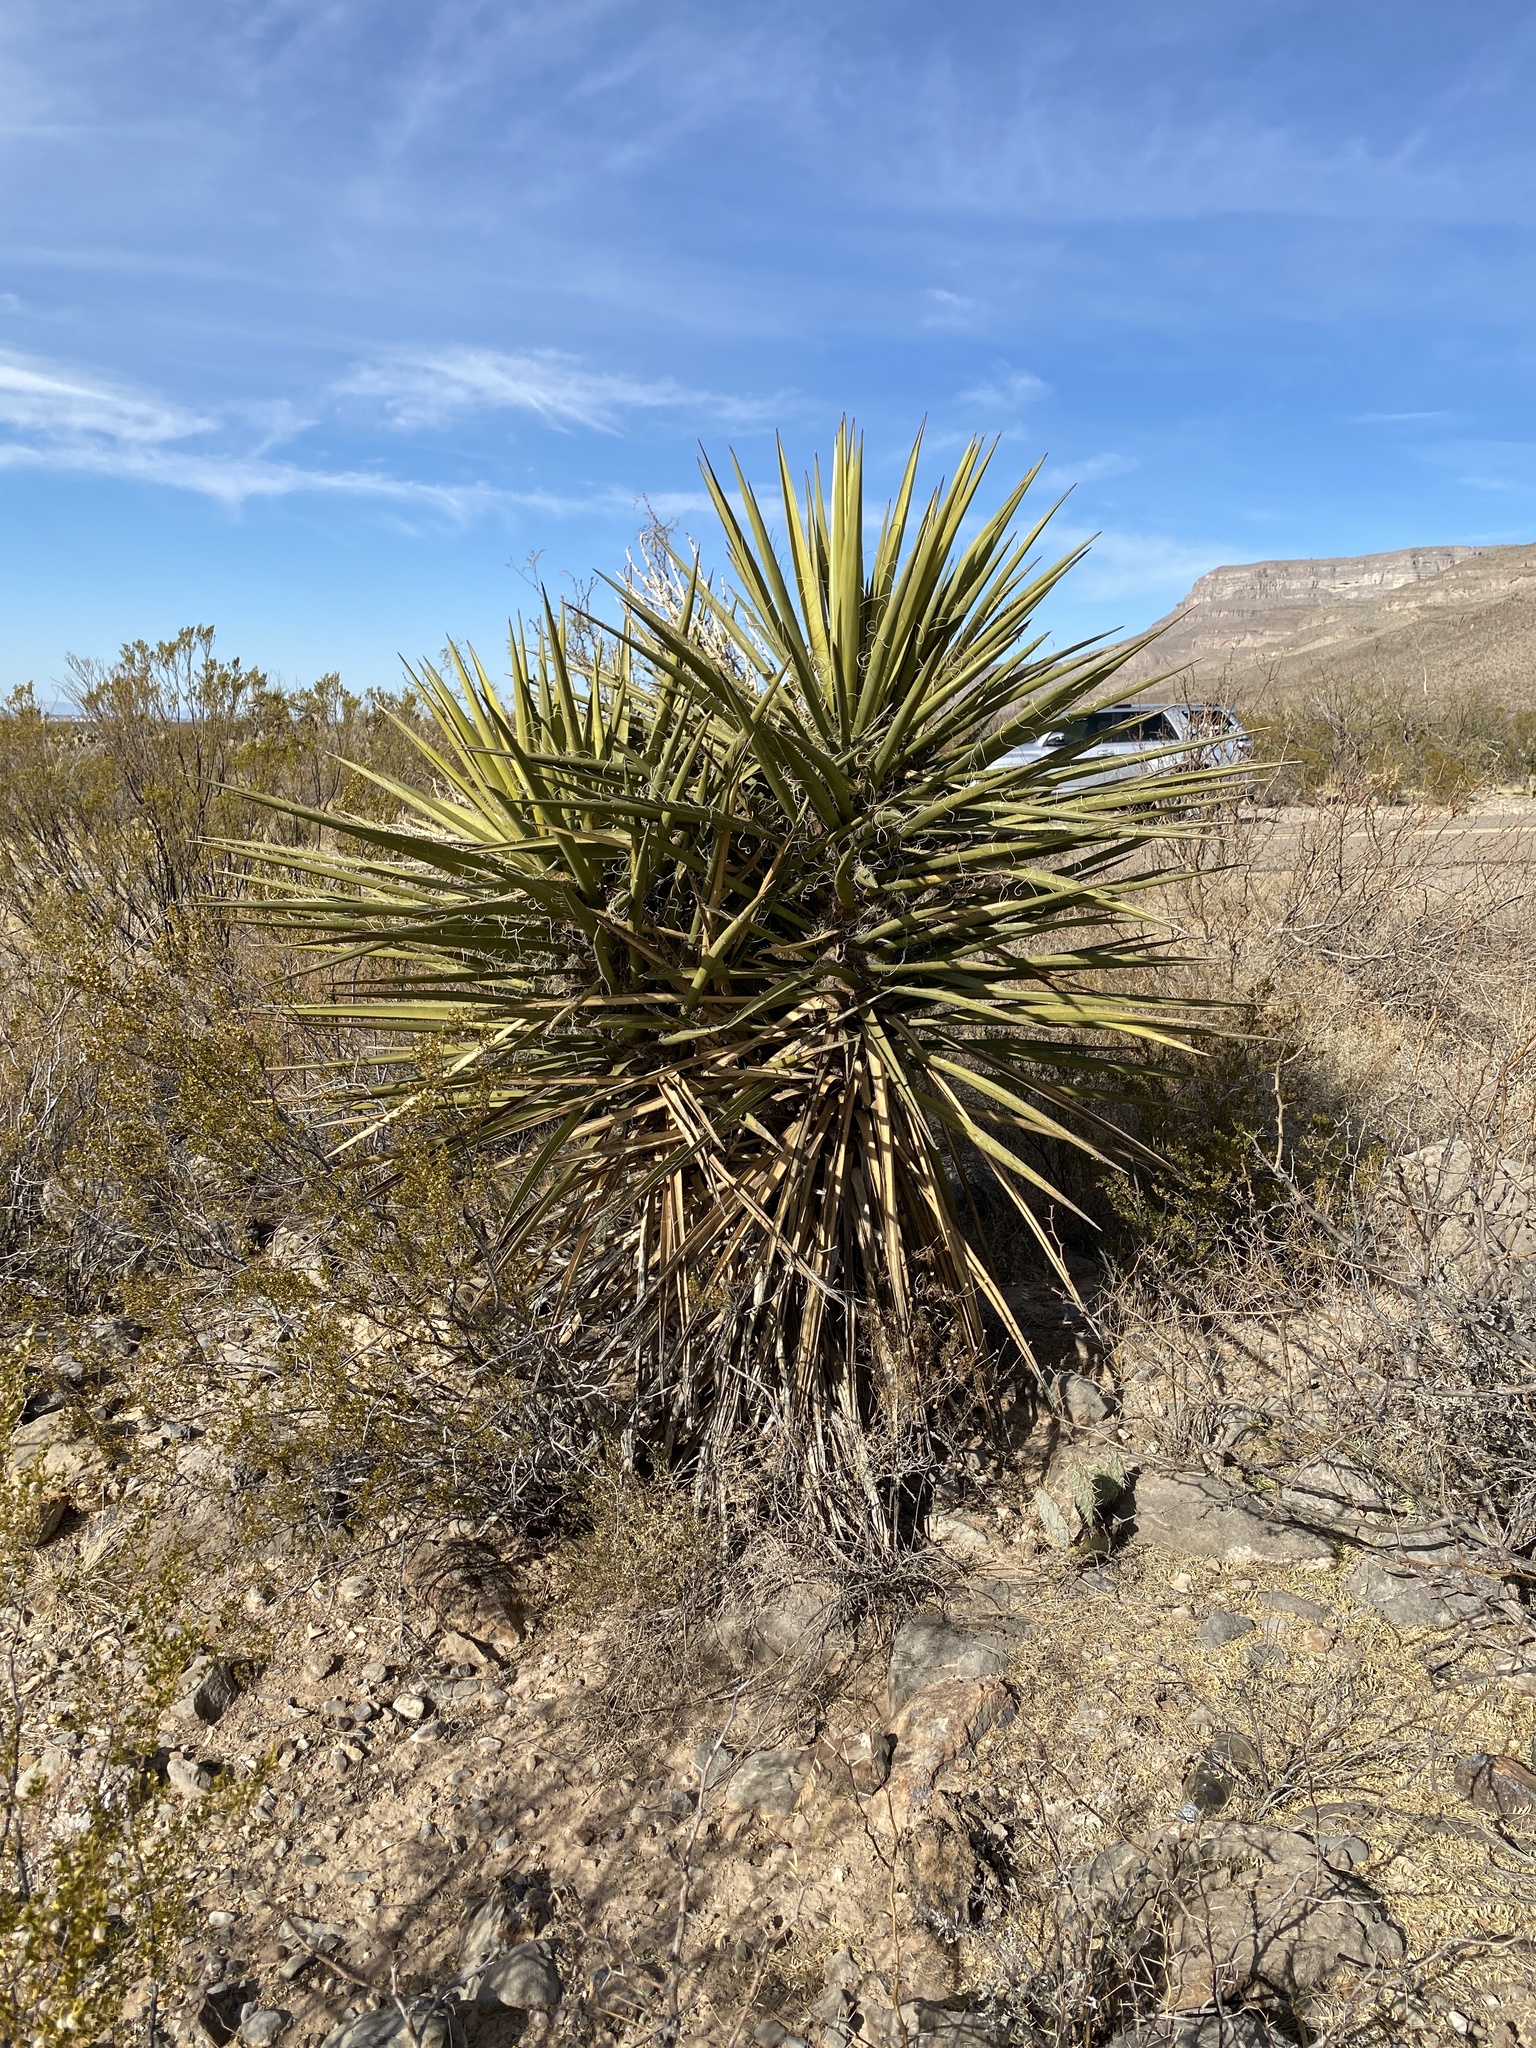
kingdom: Plantae
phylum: Tracheophyta
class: Liliopsida
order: Asparagales
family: Asparagaceae
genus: Yucca
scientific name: Yucca treculiana
